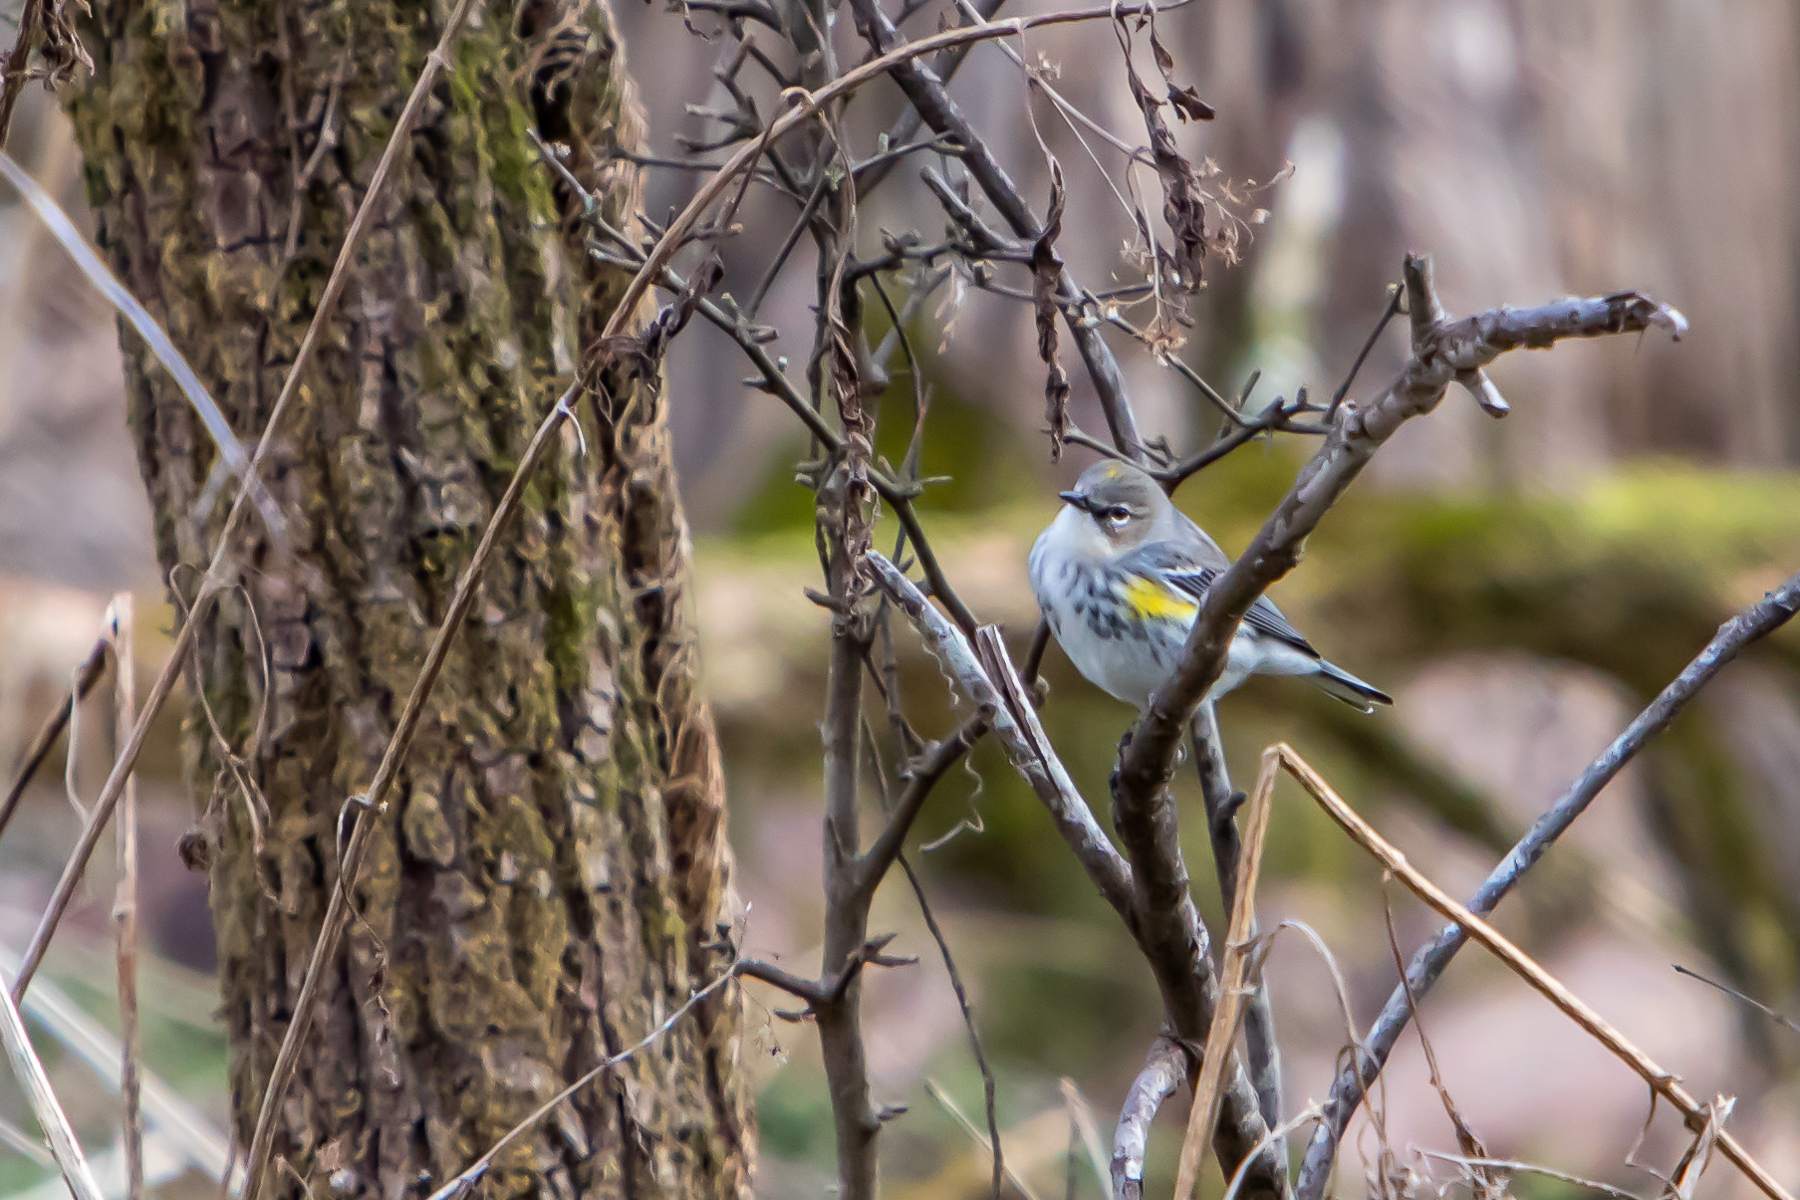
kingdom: Animalia
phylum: Chordata
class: Aves
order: Passeriformes
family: Parulidae
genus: Setophaga
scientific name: Setophaga coronata
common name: Myrtle warbler
